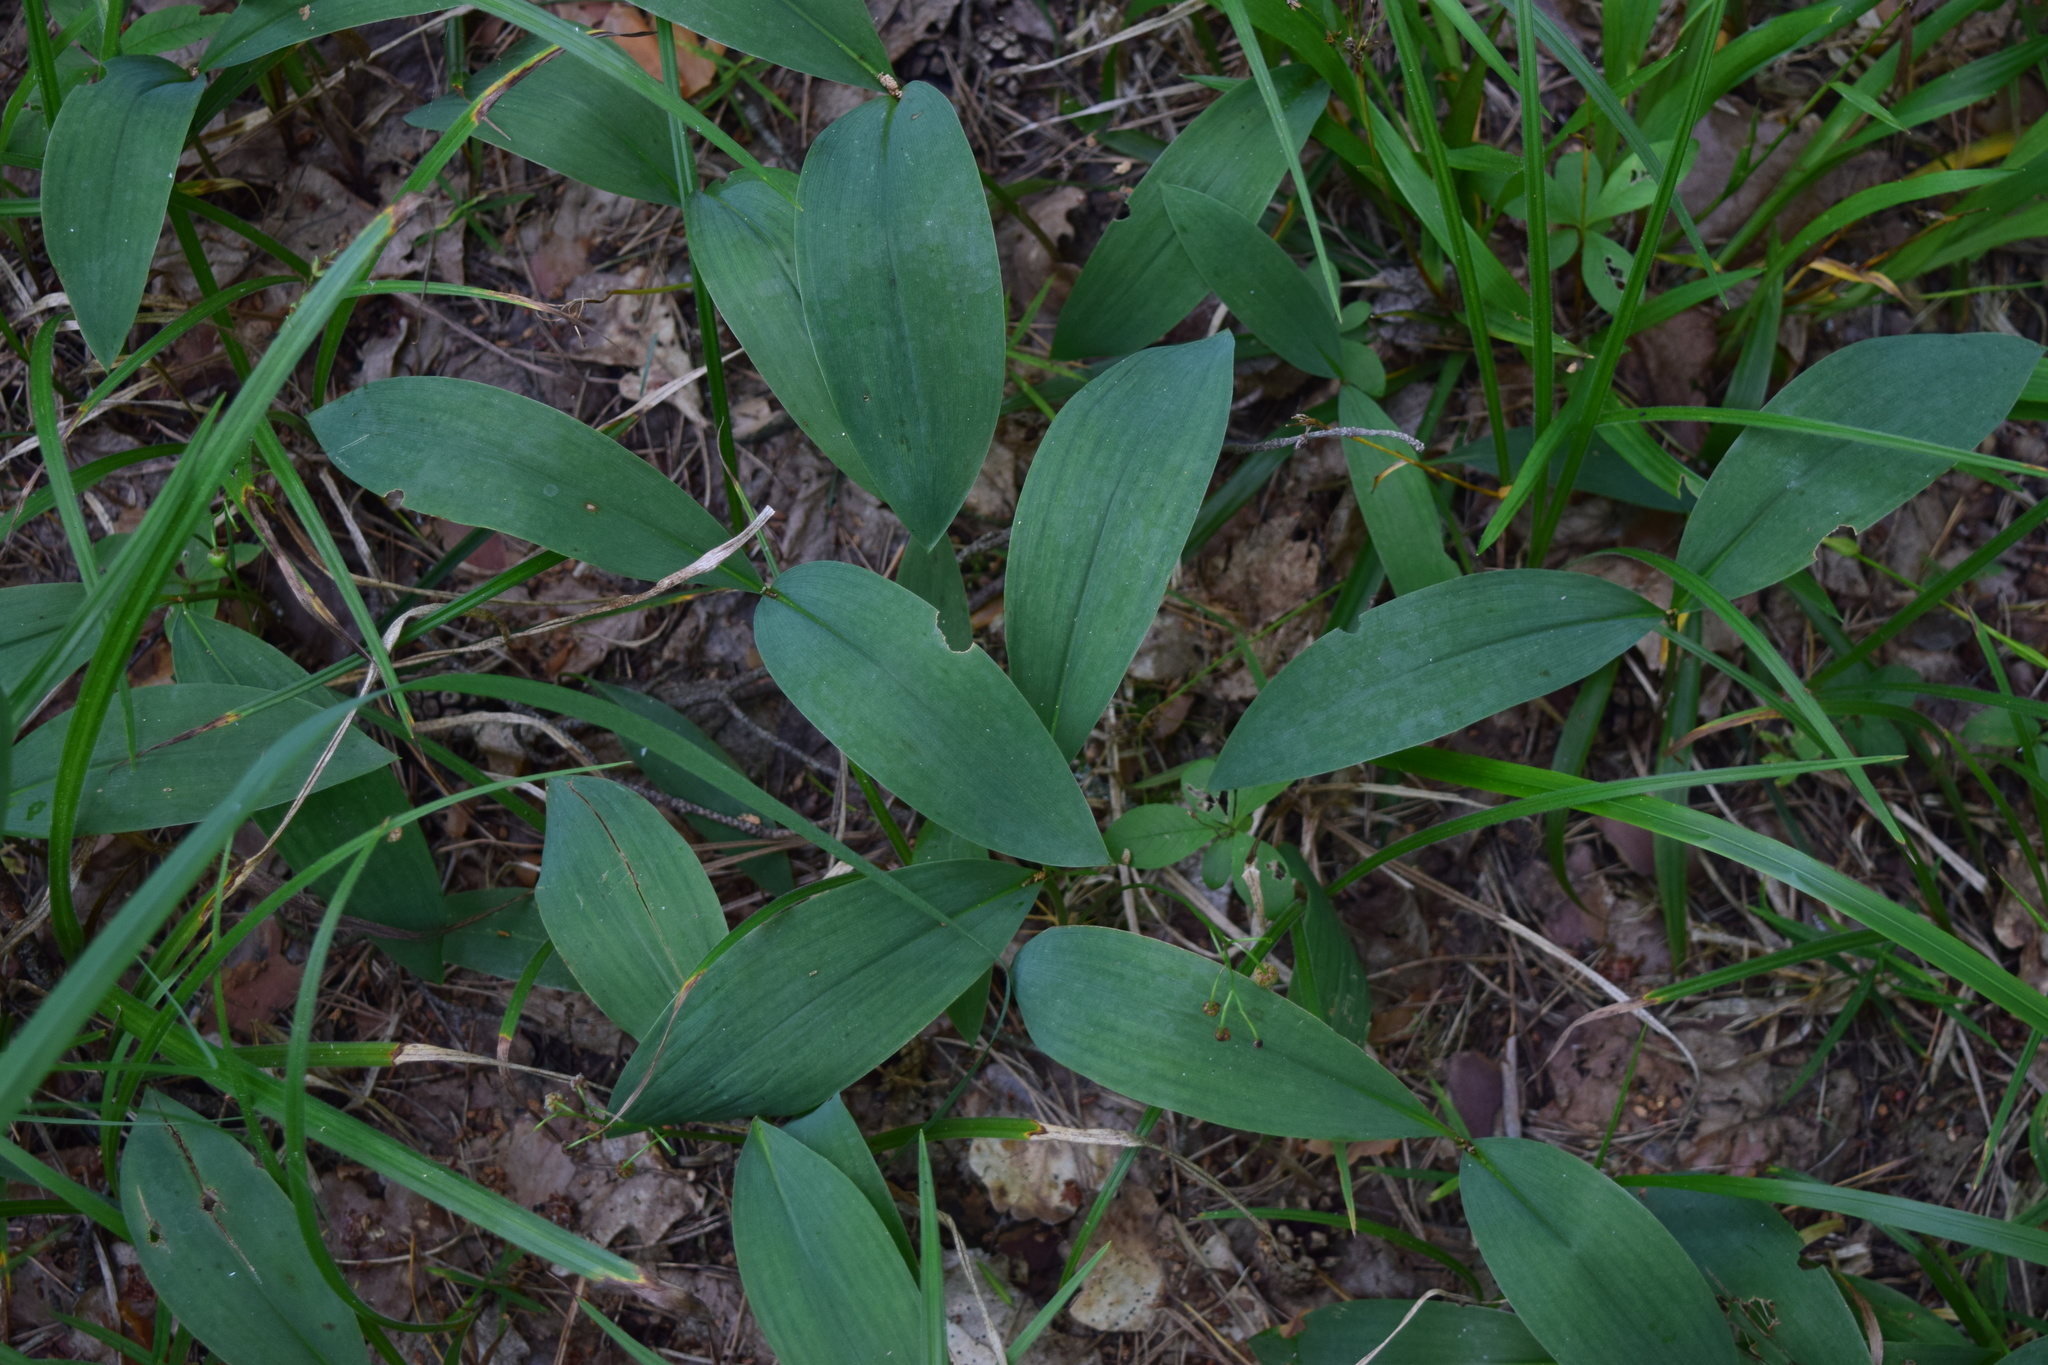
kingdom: Plantae
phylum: Tracheophyta
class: Liliopsida
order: Asparagales
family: Asparagaceae
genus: Convallaria
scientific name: Convallaria majalis
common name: Lily-of-the-valley
